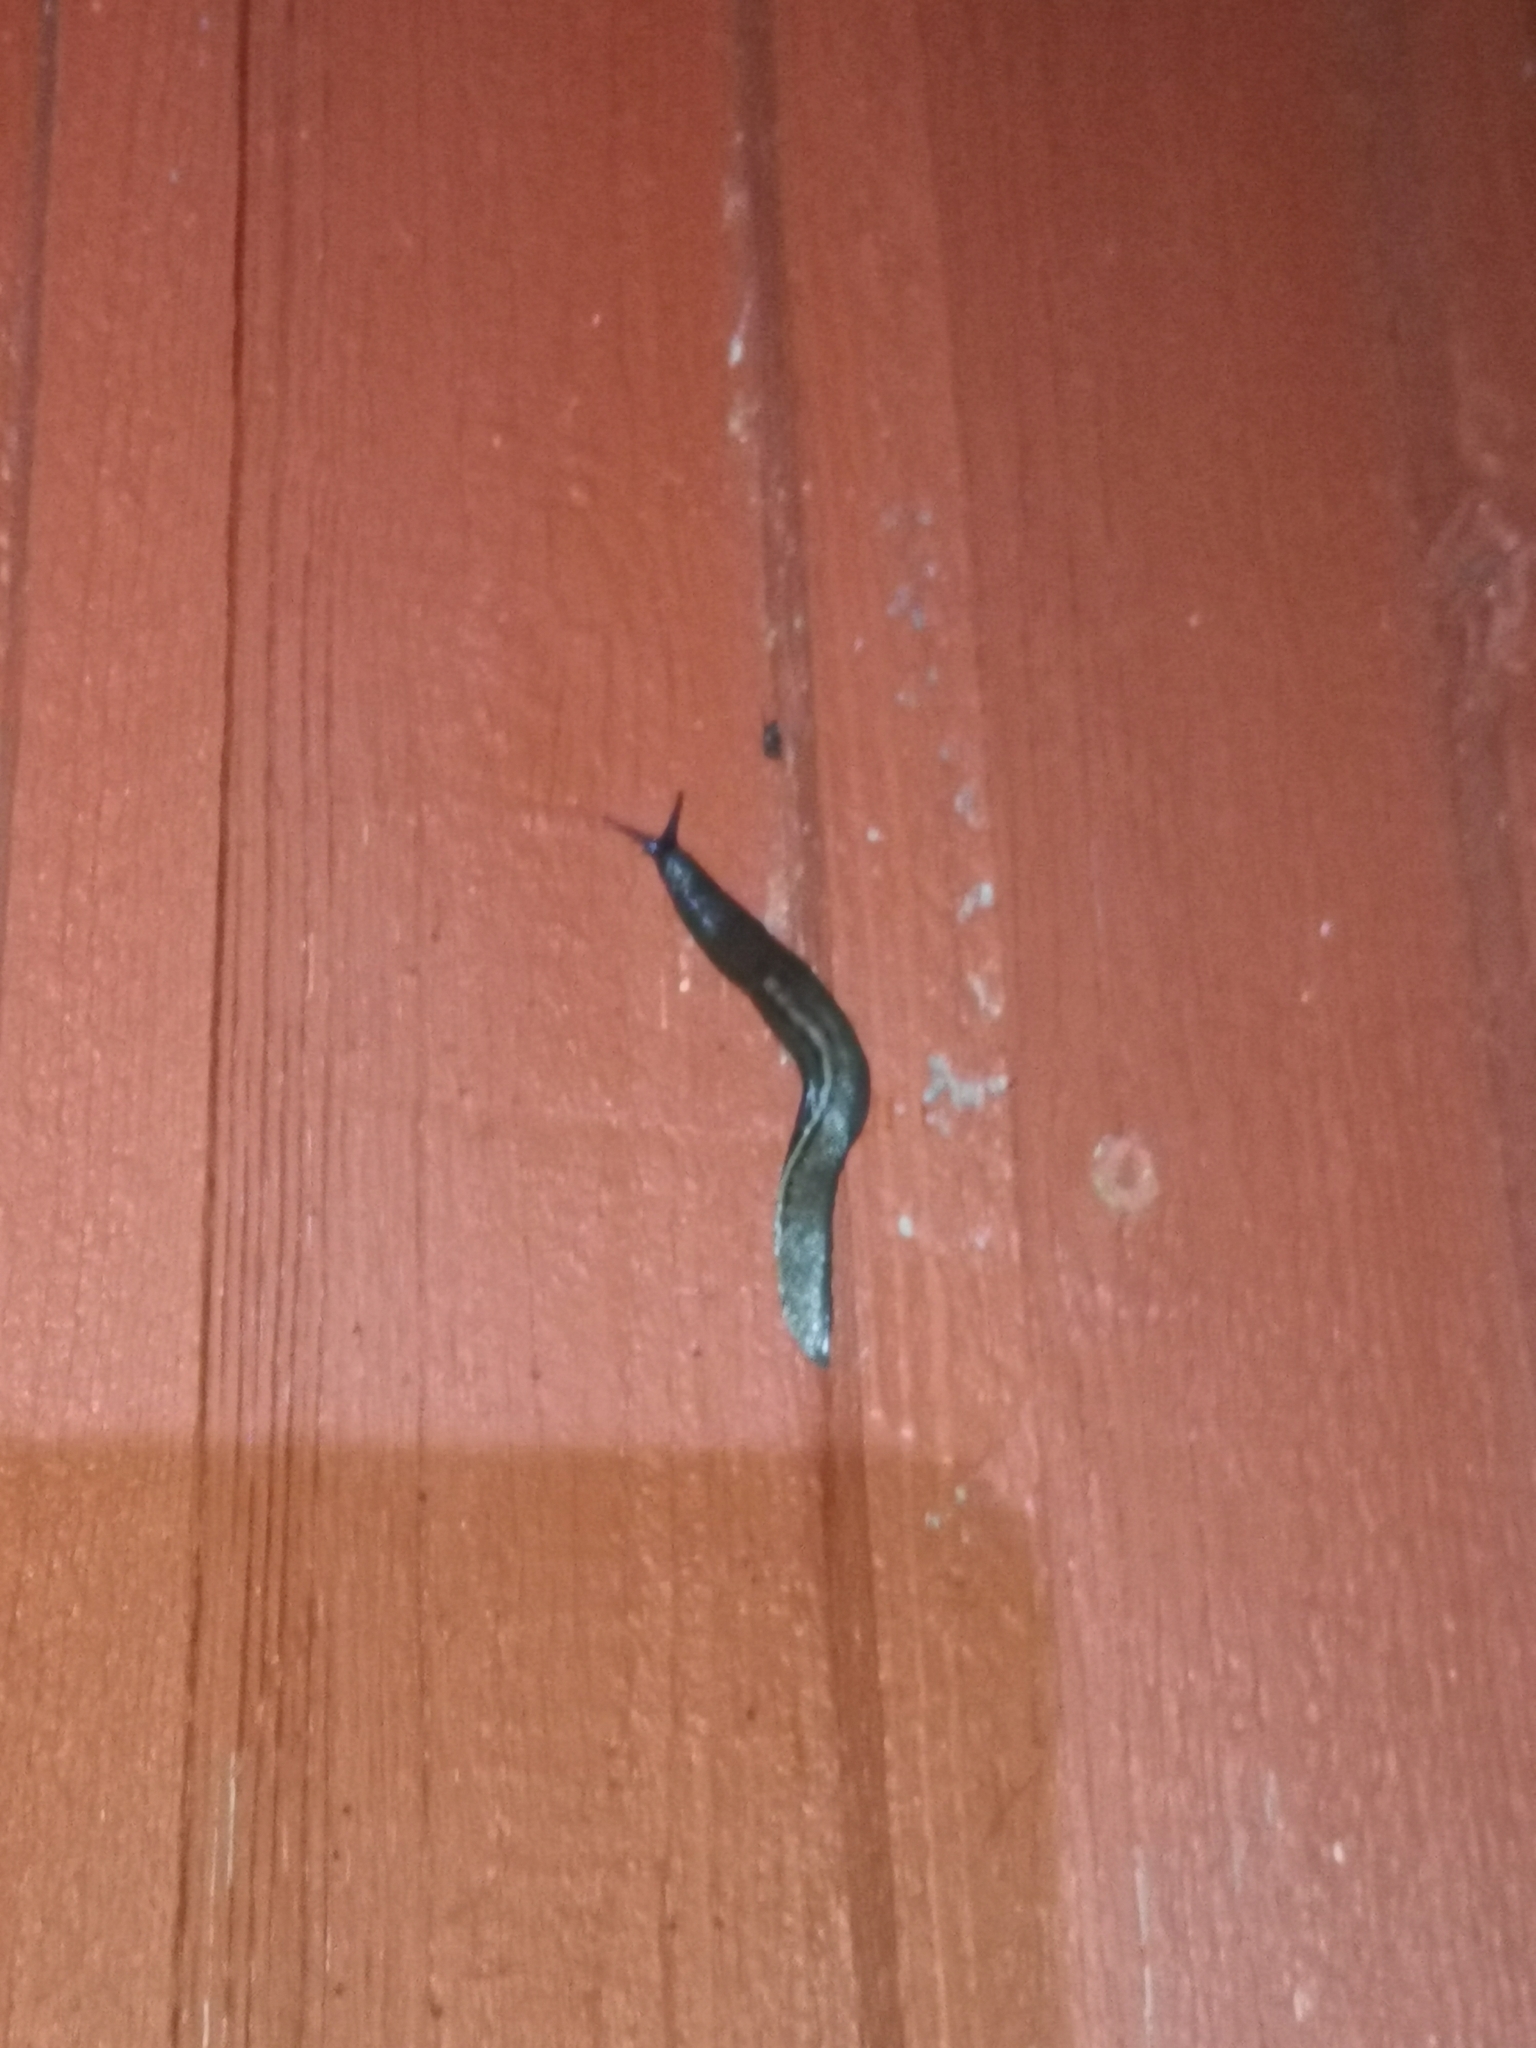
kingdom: Animalia
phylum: Mollusca
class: Gastropoda
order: Stylommatophora
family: Limacidae
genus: Limax
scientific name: Limax cinereoniger
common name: Ash-black slug
